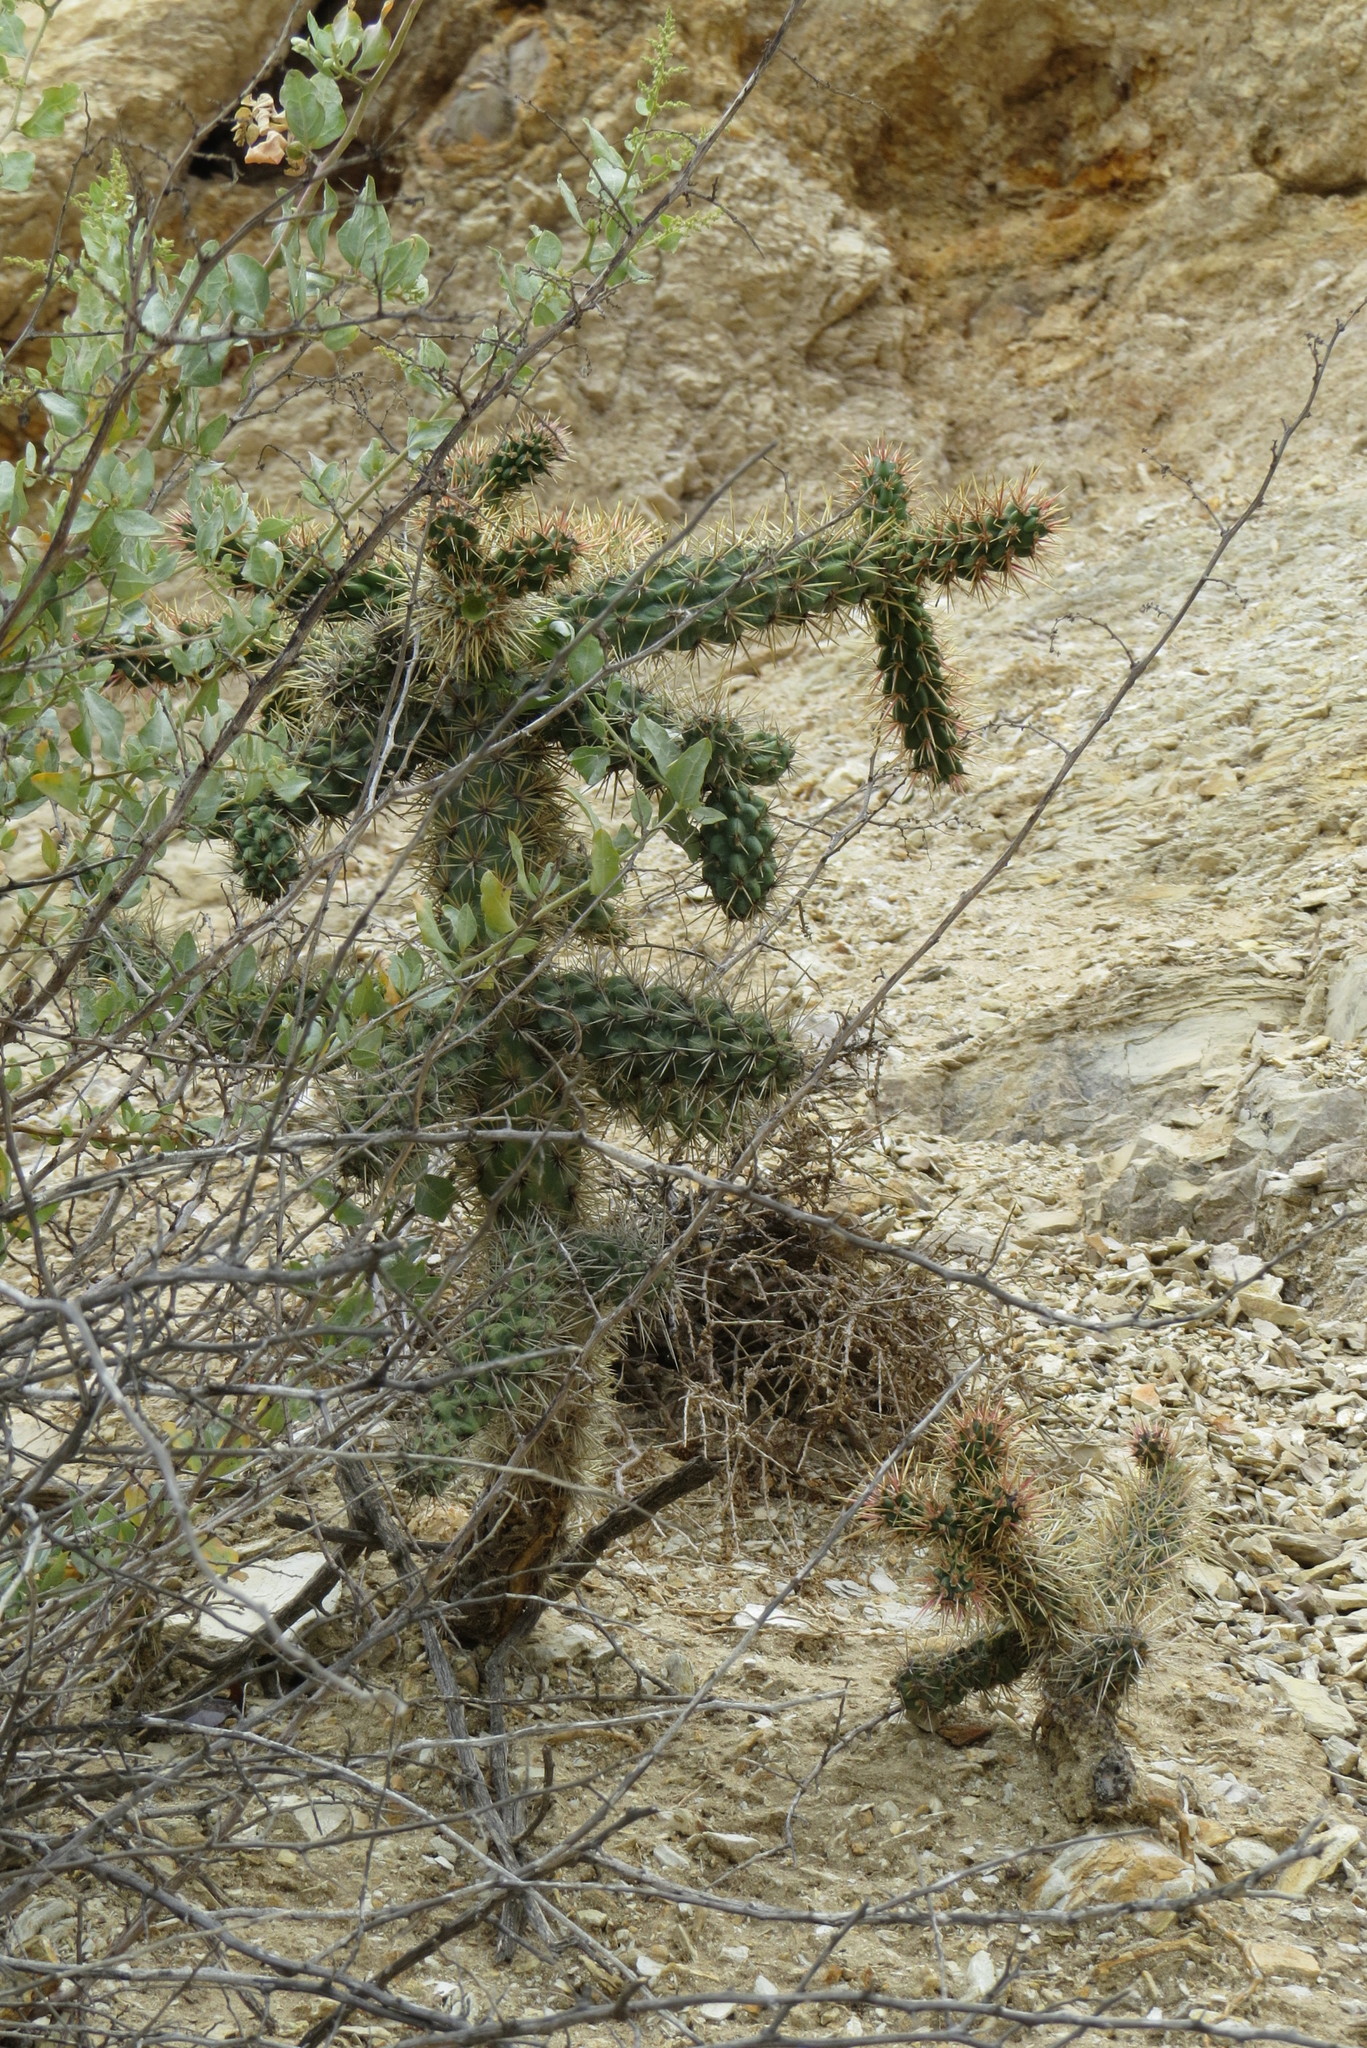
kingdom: Plantae
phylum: Tracheophyta
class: Magnoliopsida
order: Caryophyllales
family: Cactaceae
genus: Cylindropuntia
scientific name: Cylindropuntia prolifera
